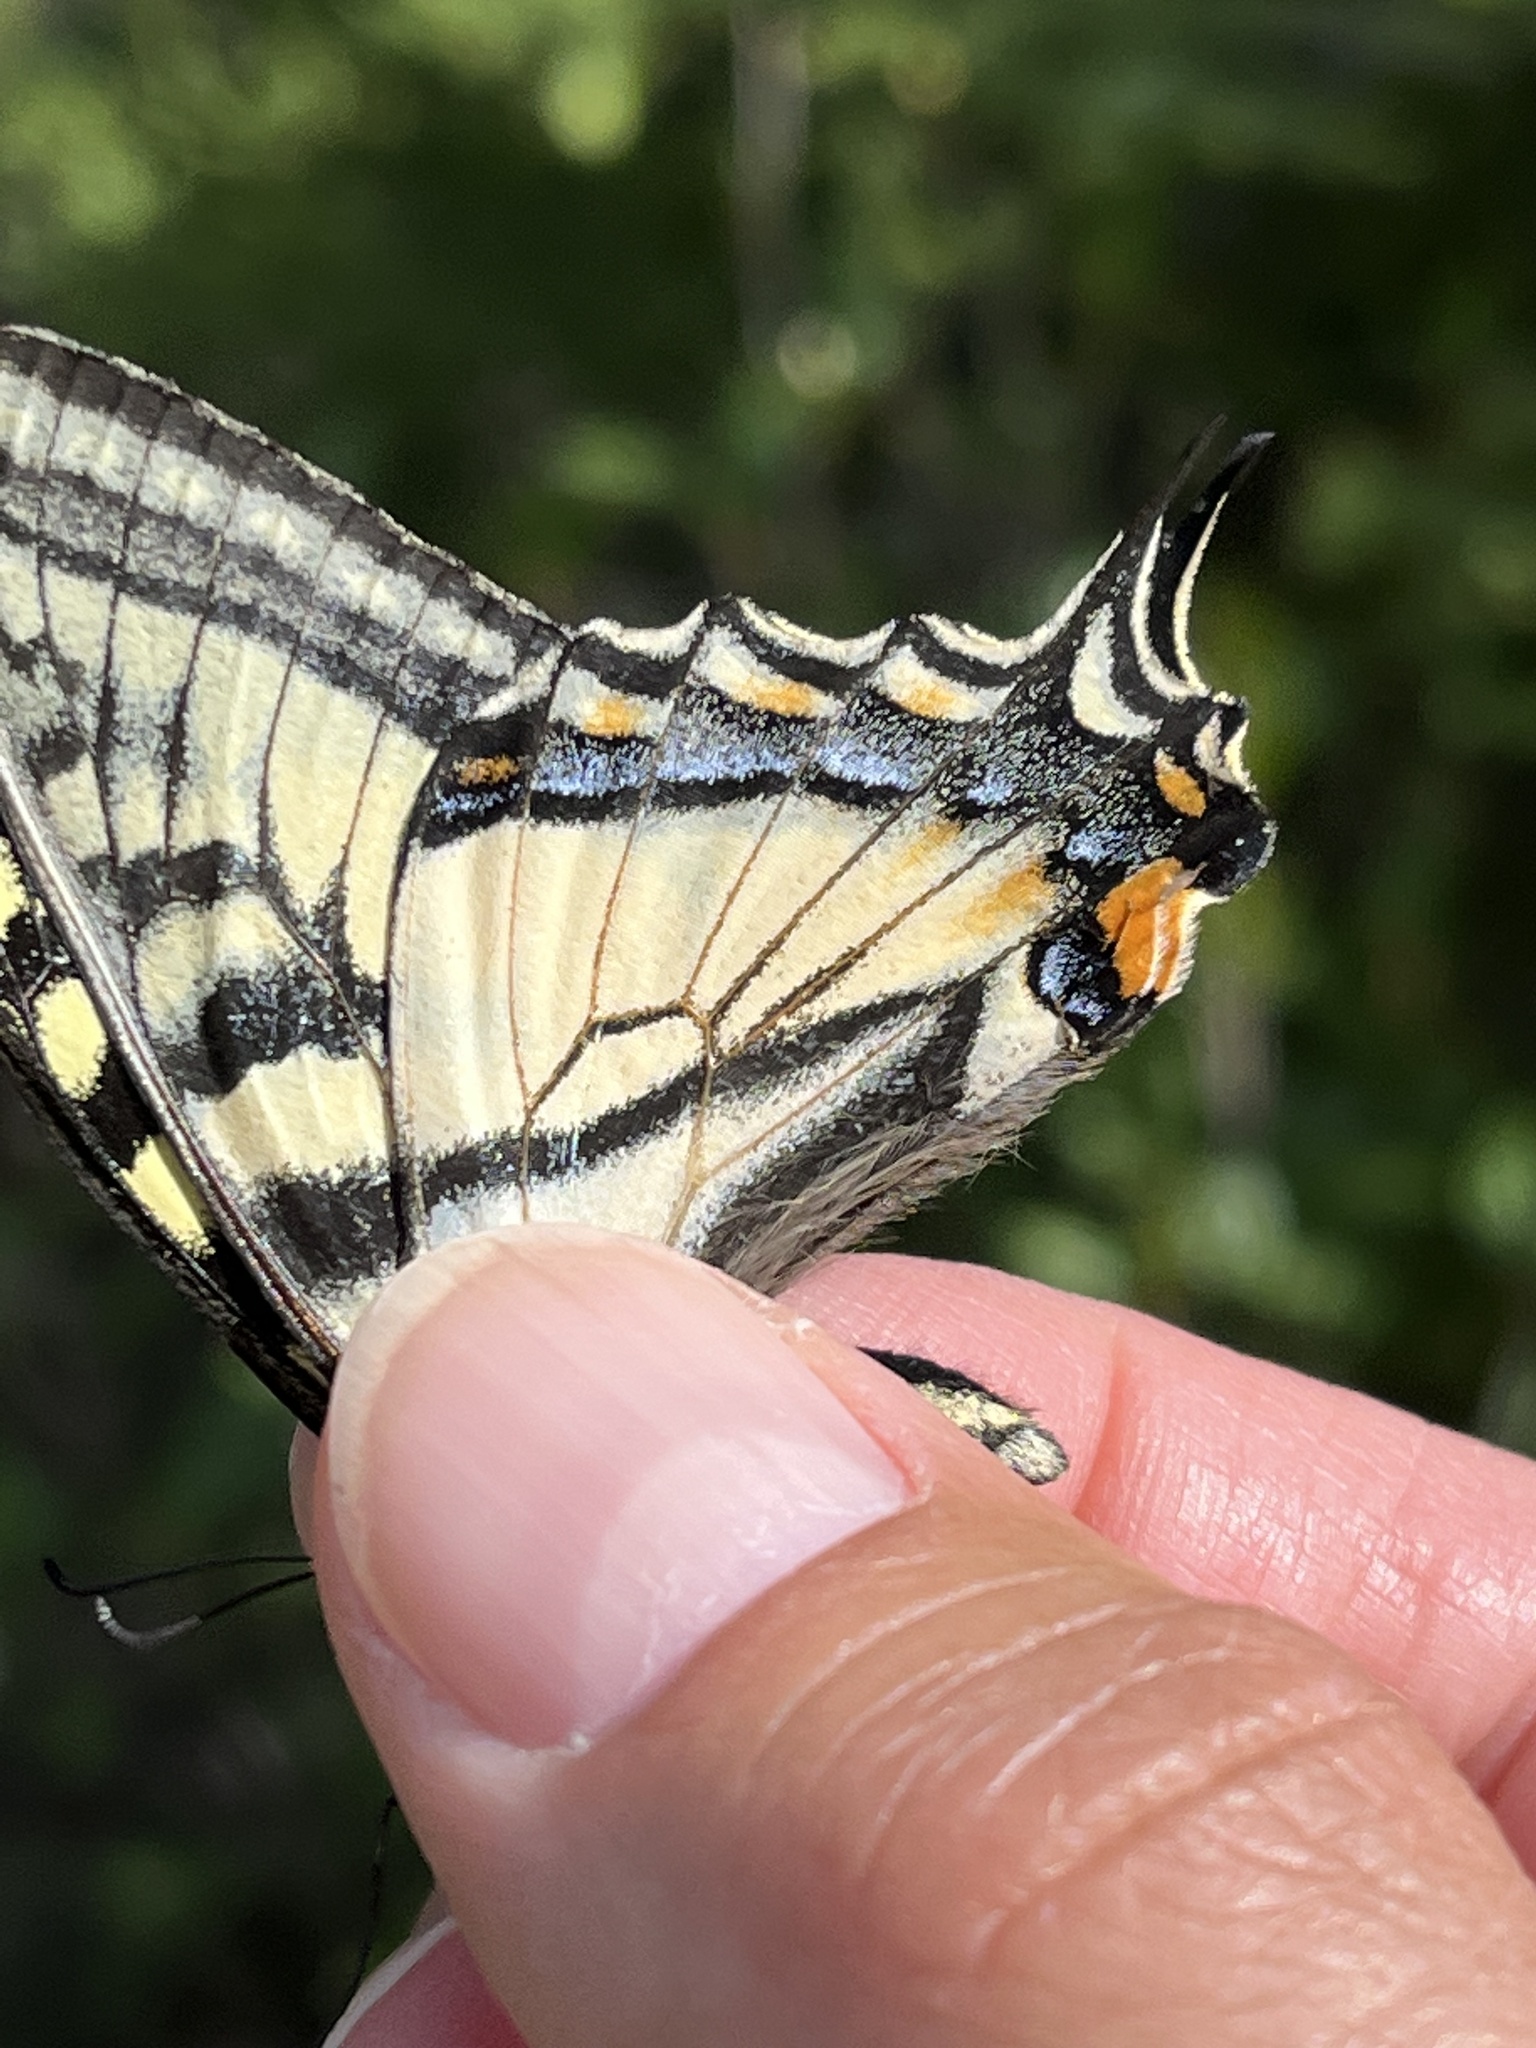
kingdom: Animalia
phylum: Arthropoda
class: Insecta
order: Lepidoptera
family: Papilionidae
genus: Papilio
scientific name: Papilio canadensis
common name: Canadian tiger swallowtail
